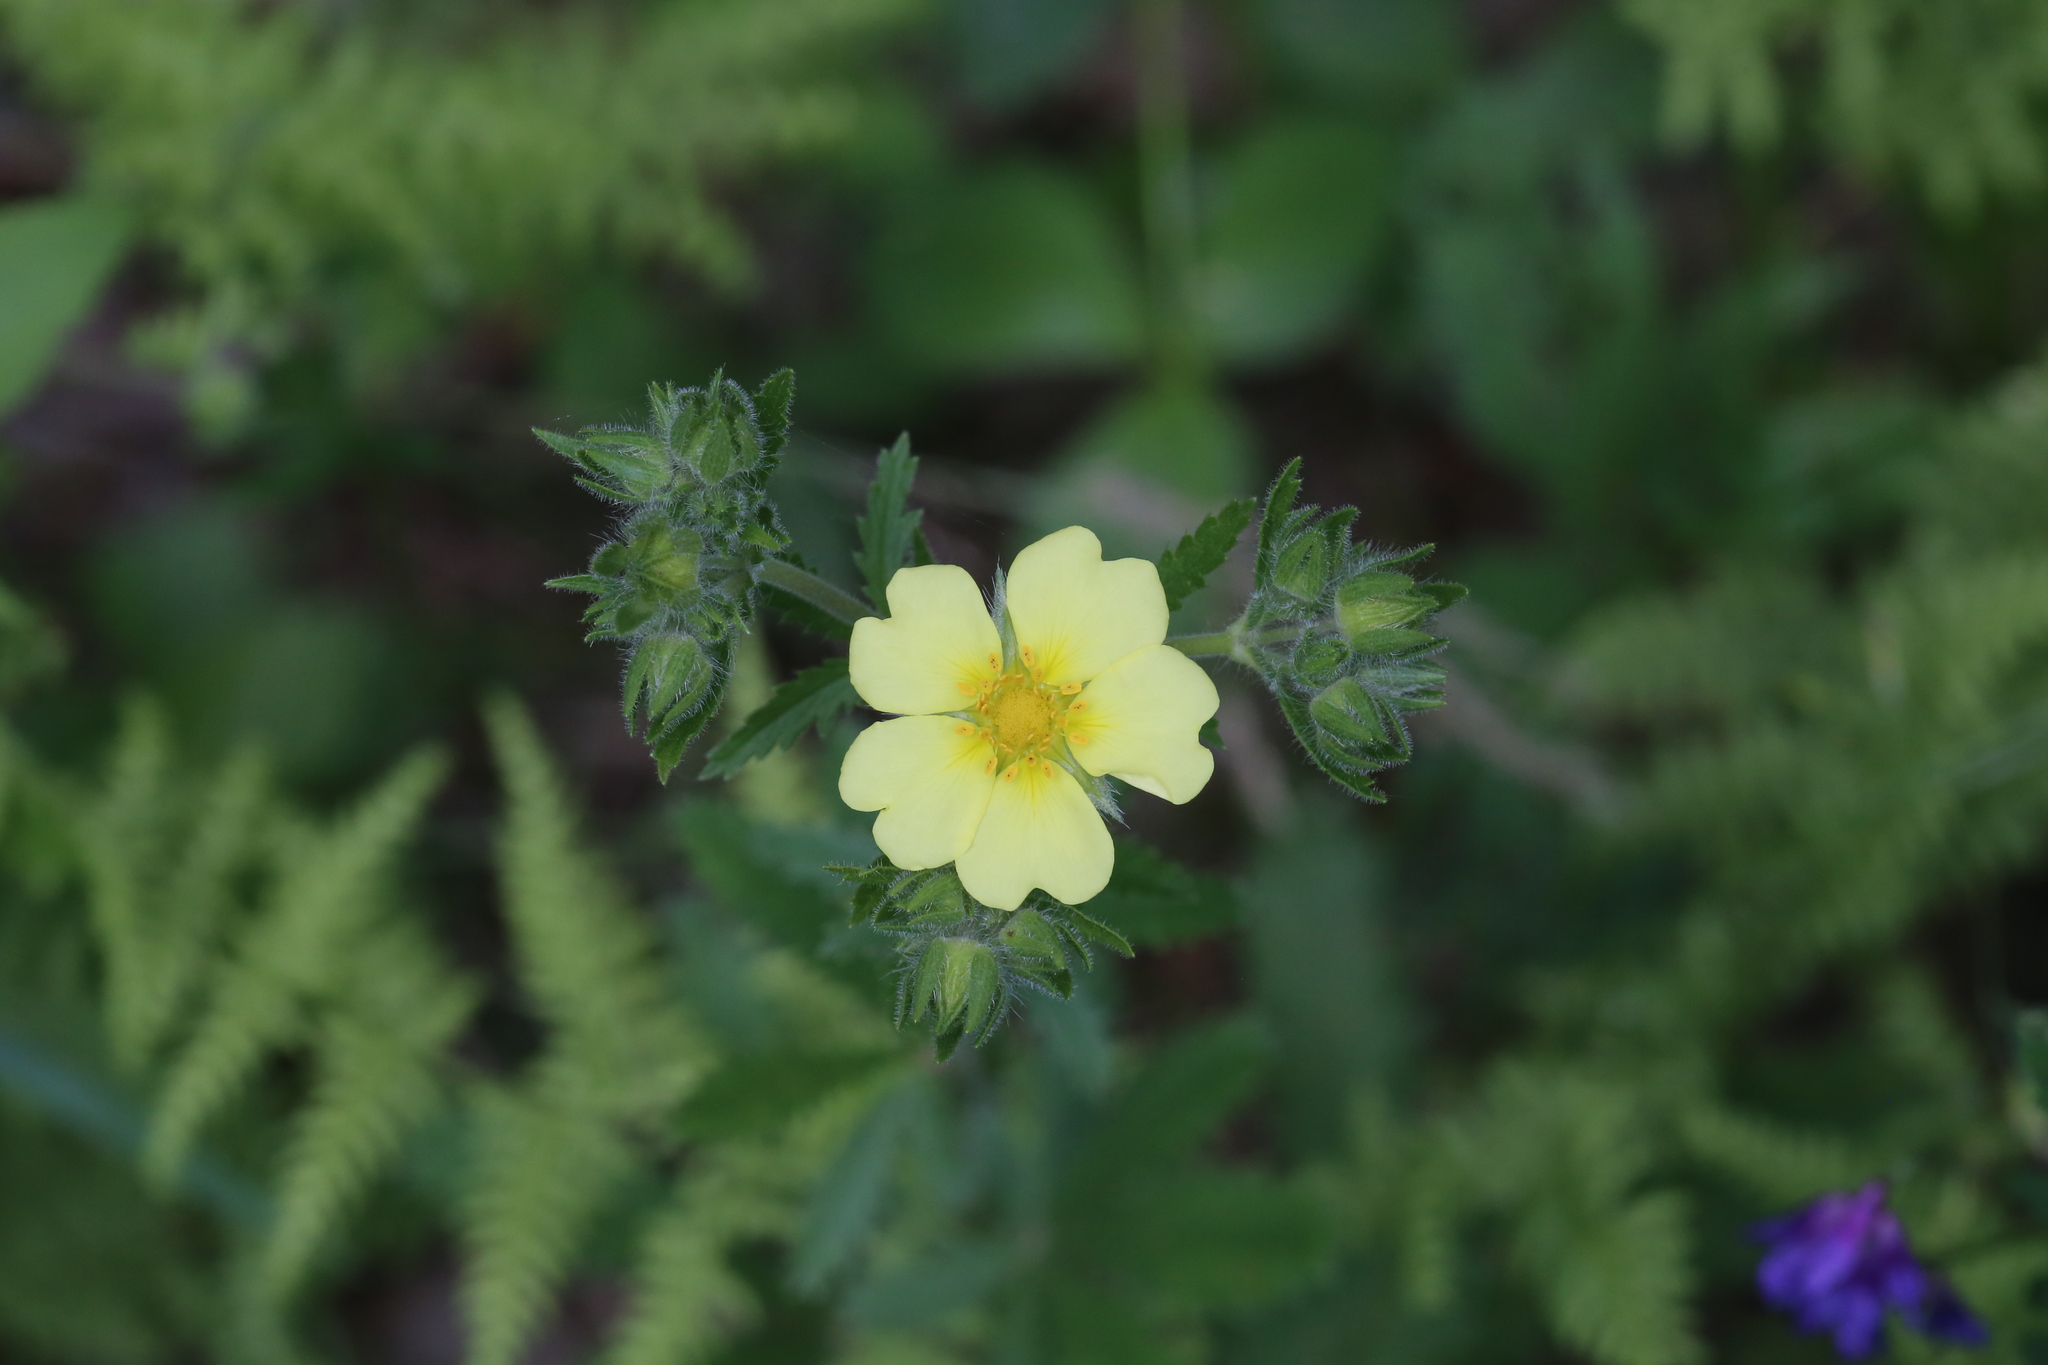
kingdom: Plantae
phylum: Tracheophyta
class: Magnoliopsida
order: Rosales
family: Rosaceae
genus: Potentilla
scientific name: Potentilla recta
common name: Sulphur cinquefoil
